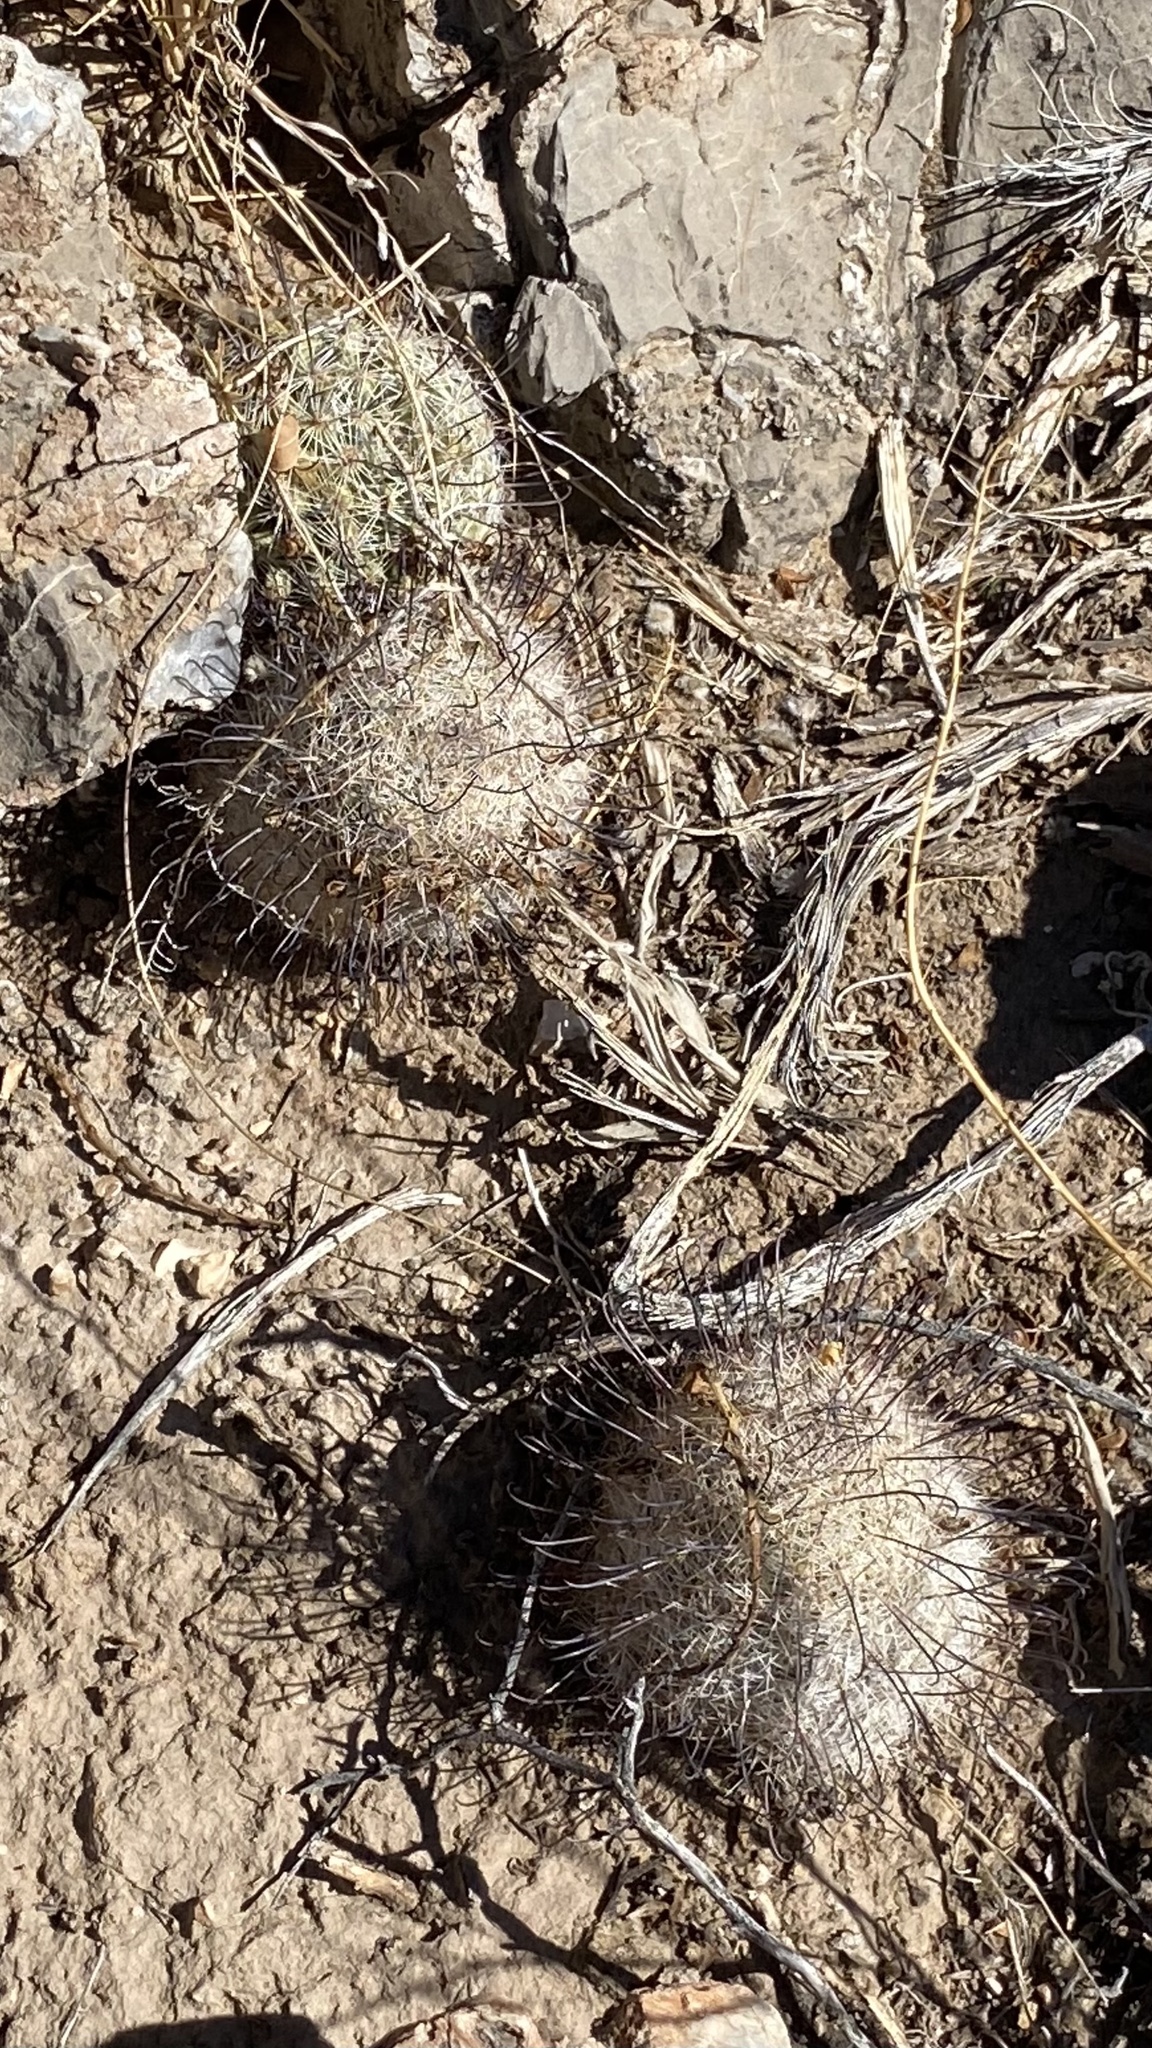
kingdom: Plantae
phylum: Tracheophyta
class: Magnoliopsida
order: Caryophyllales
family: Cactaceae
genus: Cochemiea
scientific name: Cochemiea grahamii
